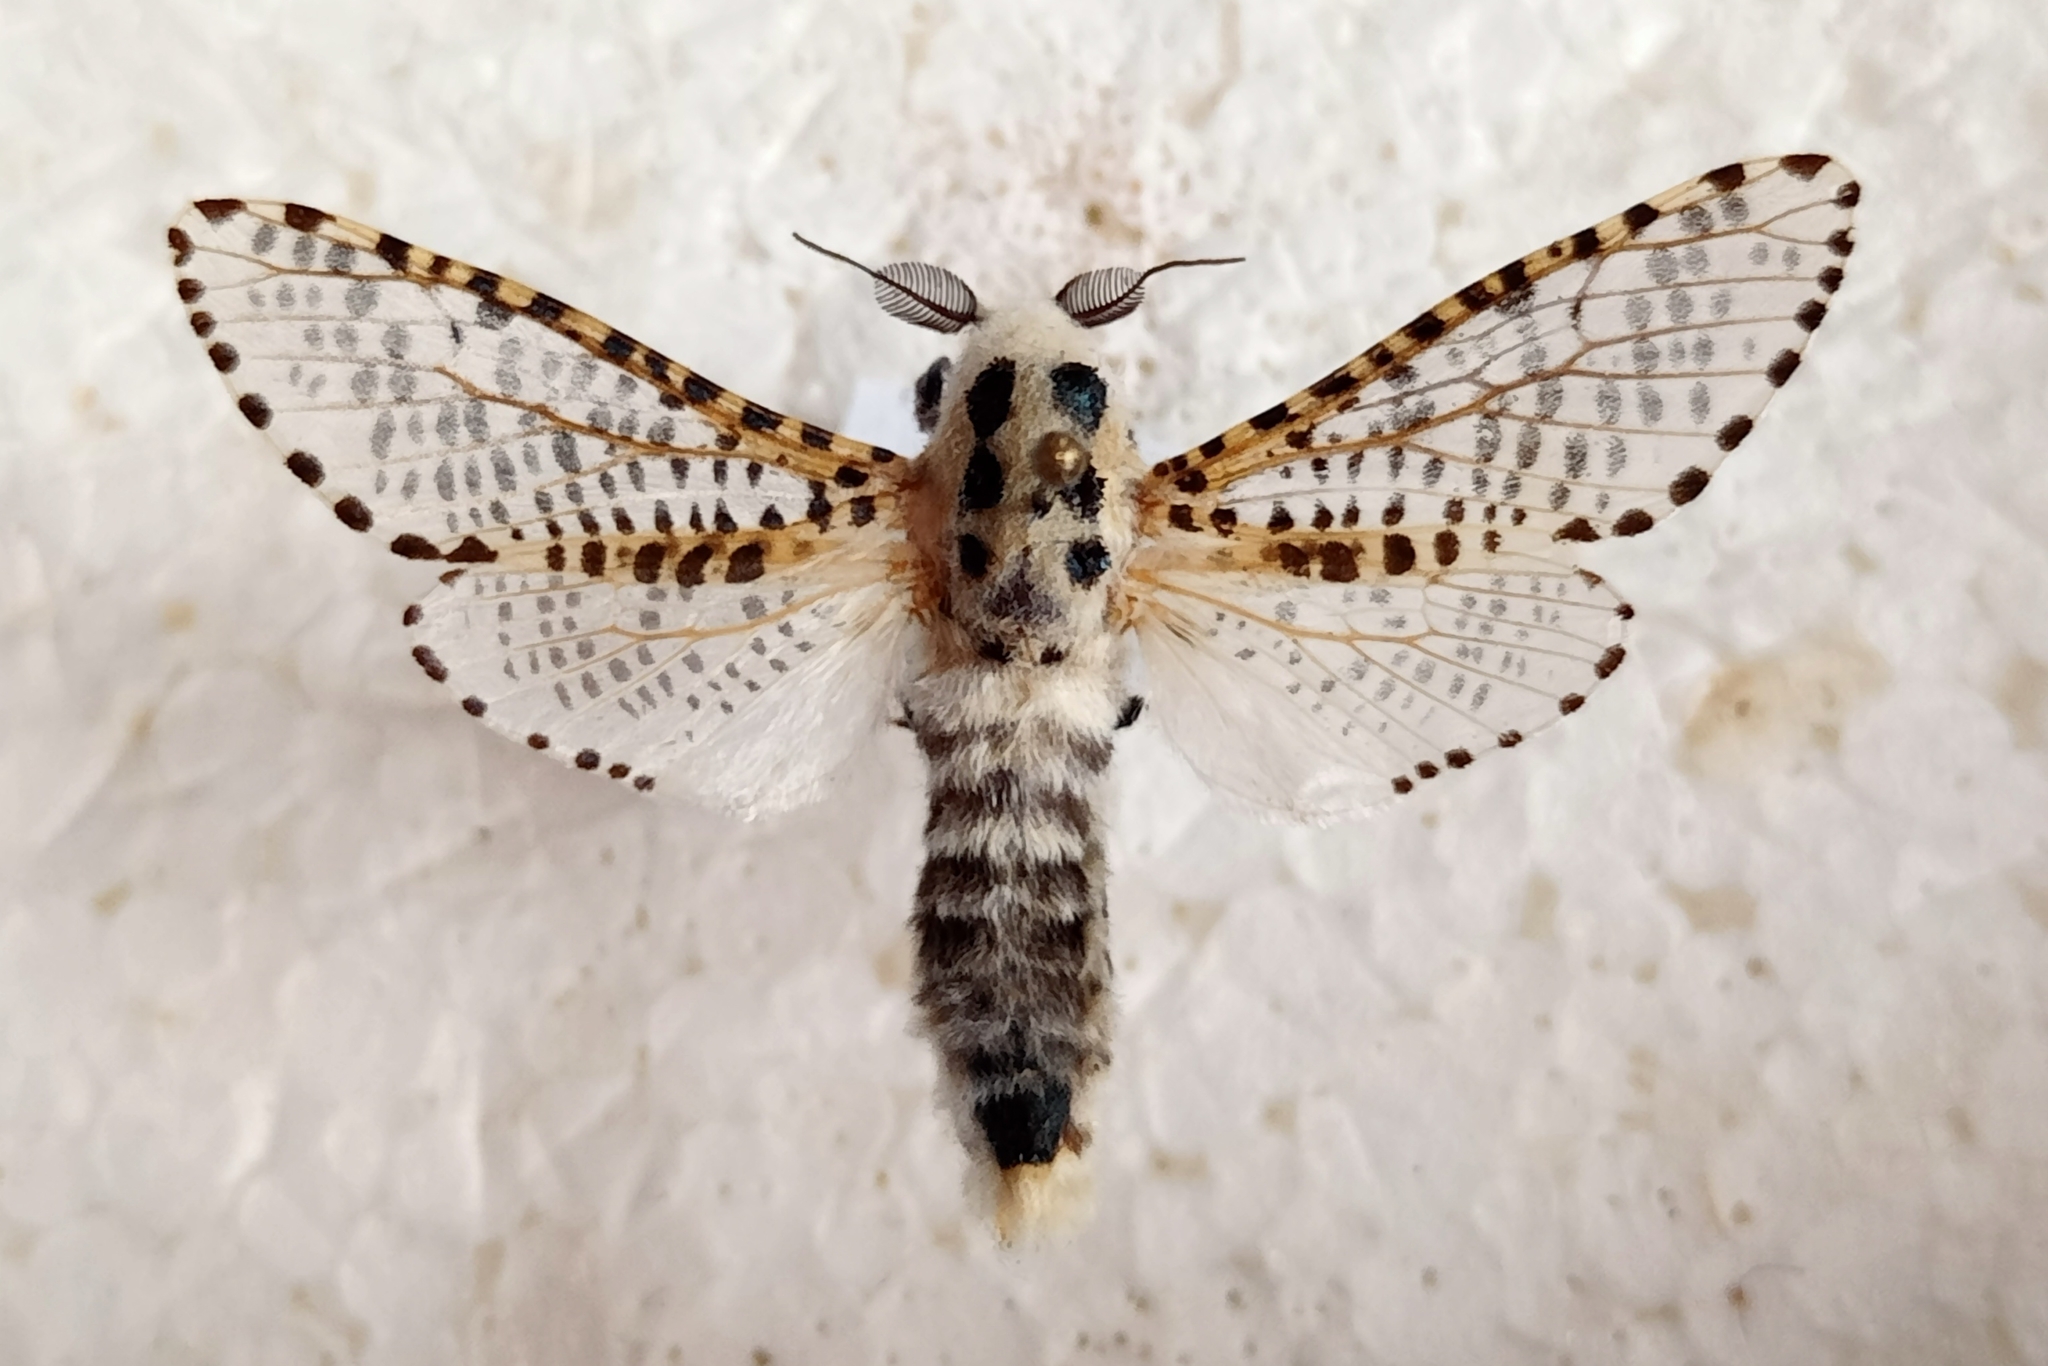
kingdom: Animalia
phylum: Arthropoda
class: Insecta
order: Lepidoptera
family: Cossidae
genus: Zeuzera
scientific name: Zeuzera pyrina
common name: Leopard moth
